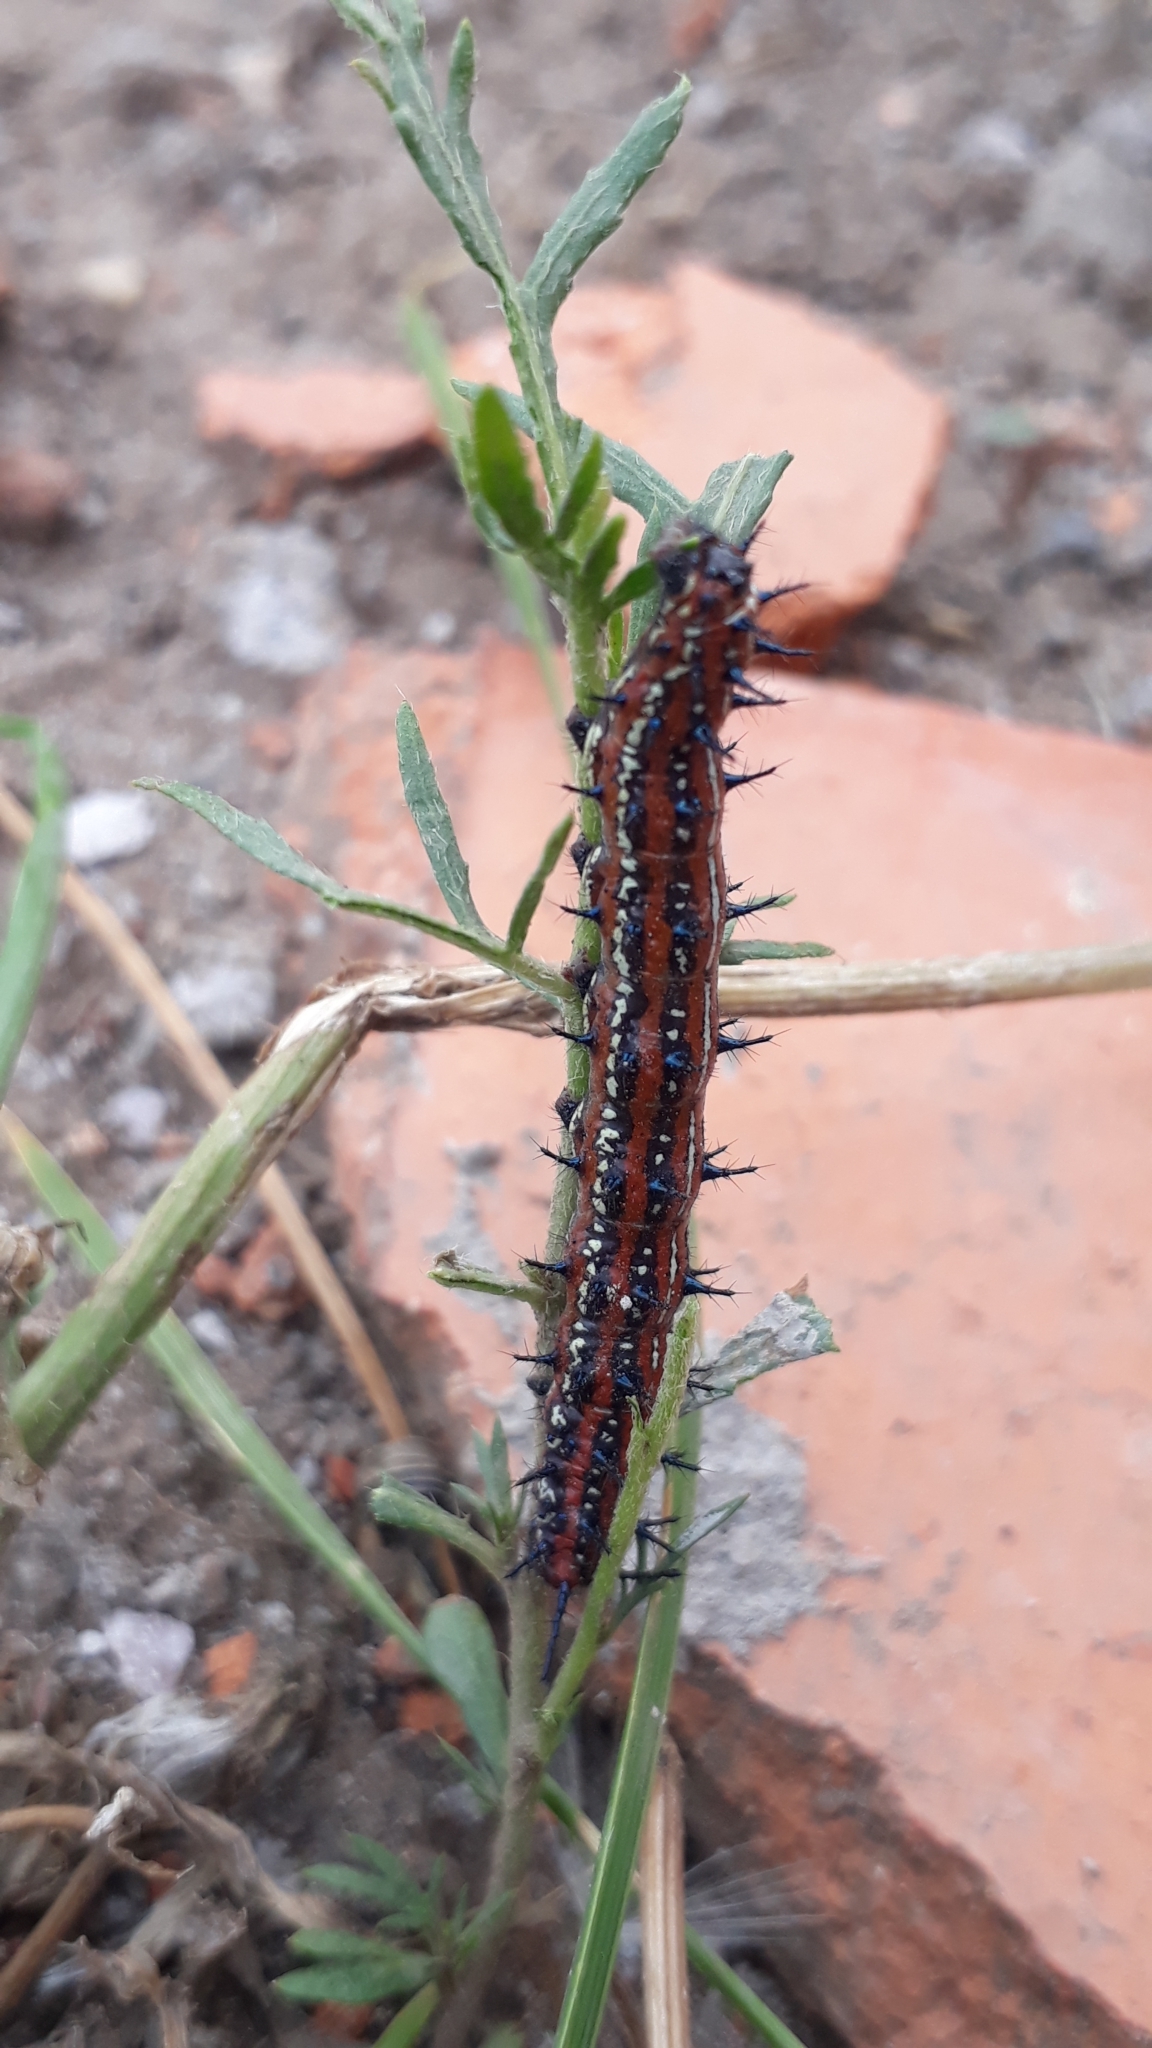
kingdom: Animalia
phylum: Arthropoda
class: Insecta
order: Lepidoptera
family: Nymphalidae
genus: Euptoieta
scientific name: Euptoieta hortensia
